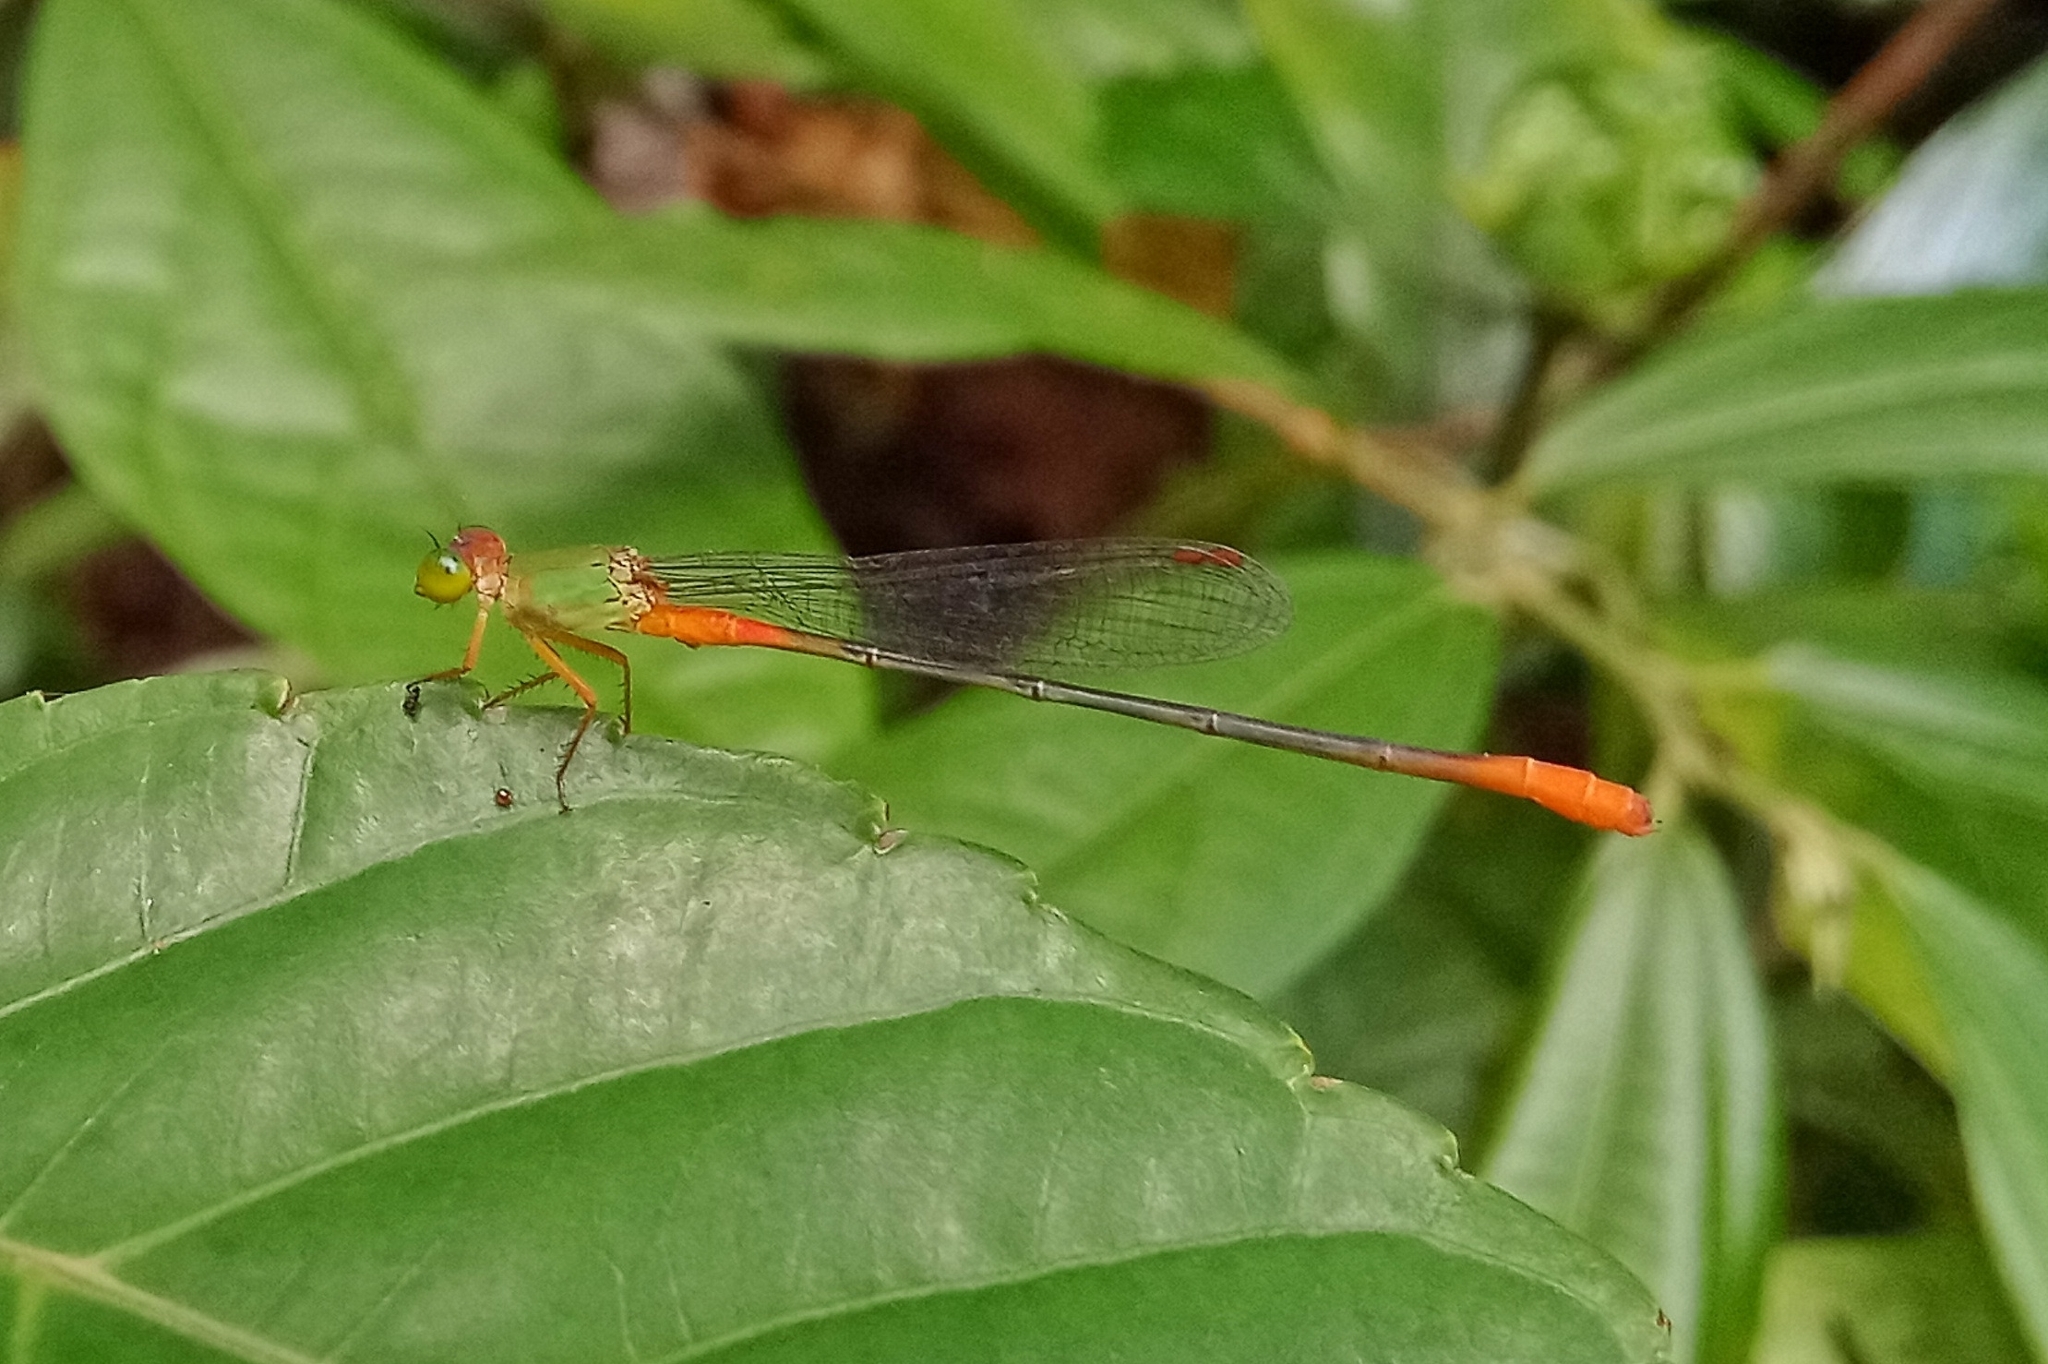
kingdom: Animalia
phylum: Arthropoda
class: Insecta
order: Odonata
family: Coenagrionidae
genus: Ceriagrion
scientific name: Ceriagrion cerinorubellum
